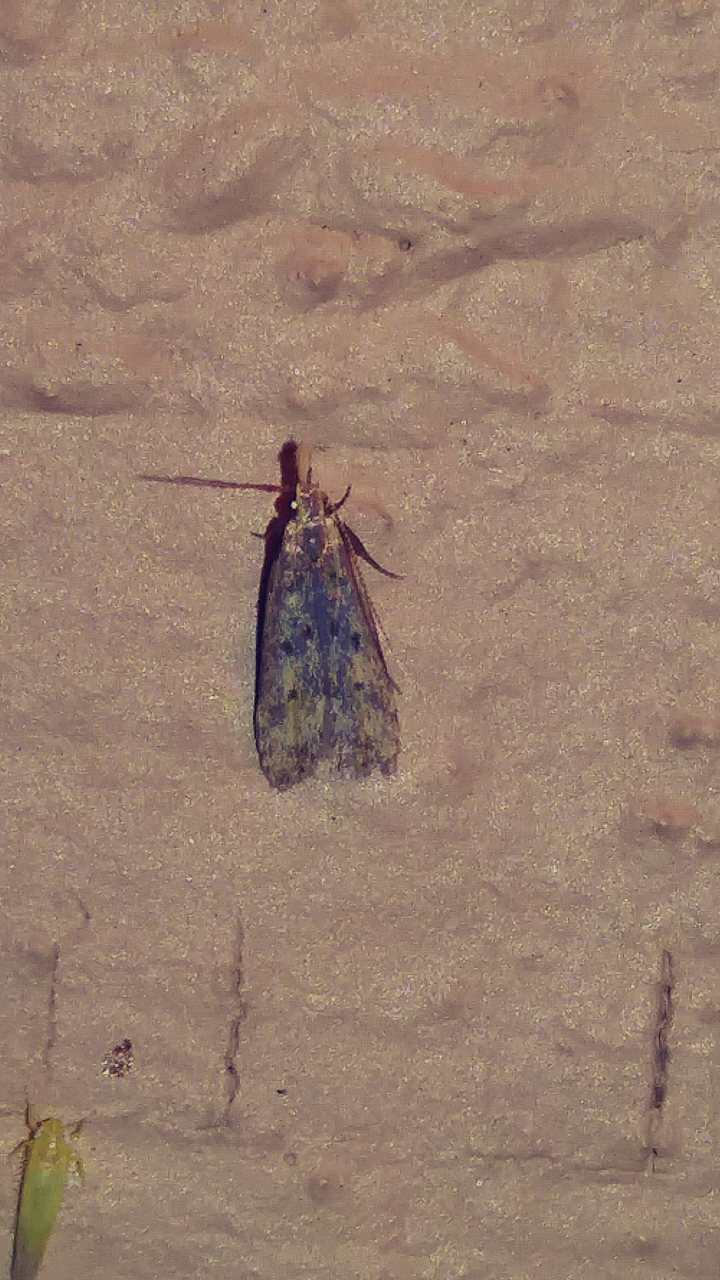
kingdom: Animalia
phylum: Arthropoda
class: Insecta
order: Lepidoptera
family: Gelechiidae
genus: Dichomeris
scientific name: Dichomeris punctipennella
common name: Many-spotted dichomeris moth
